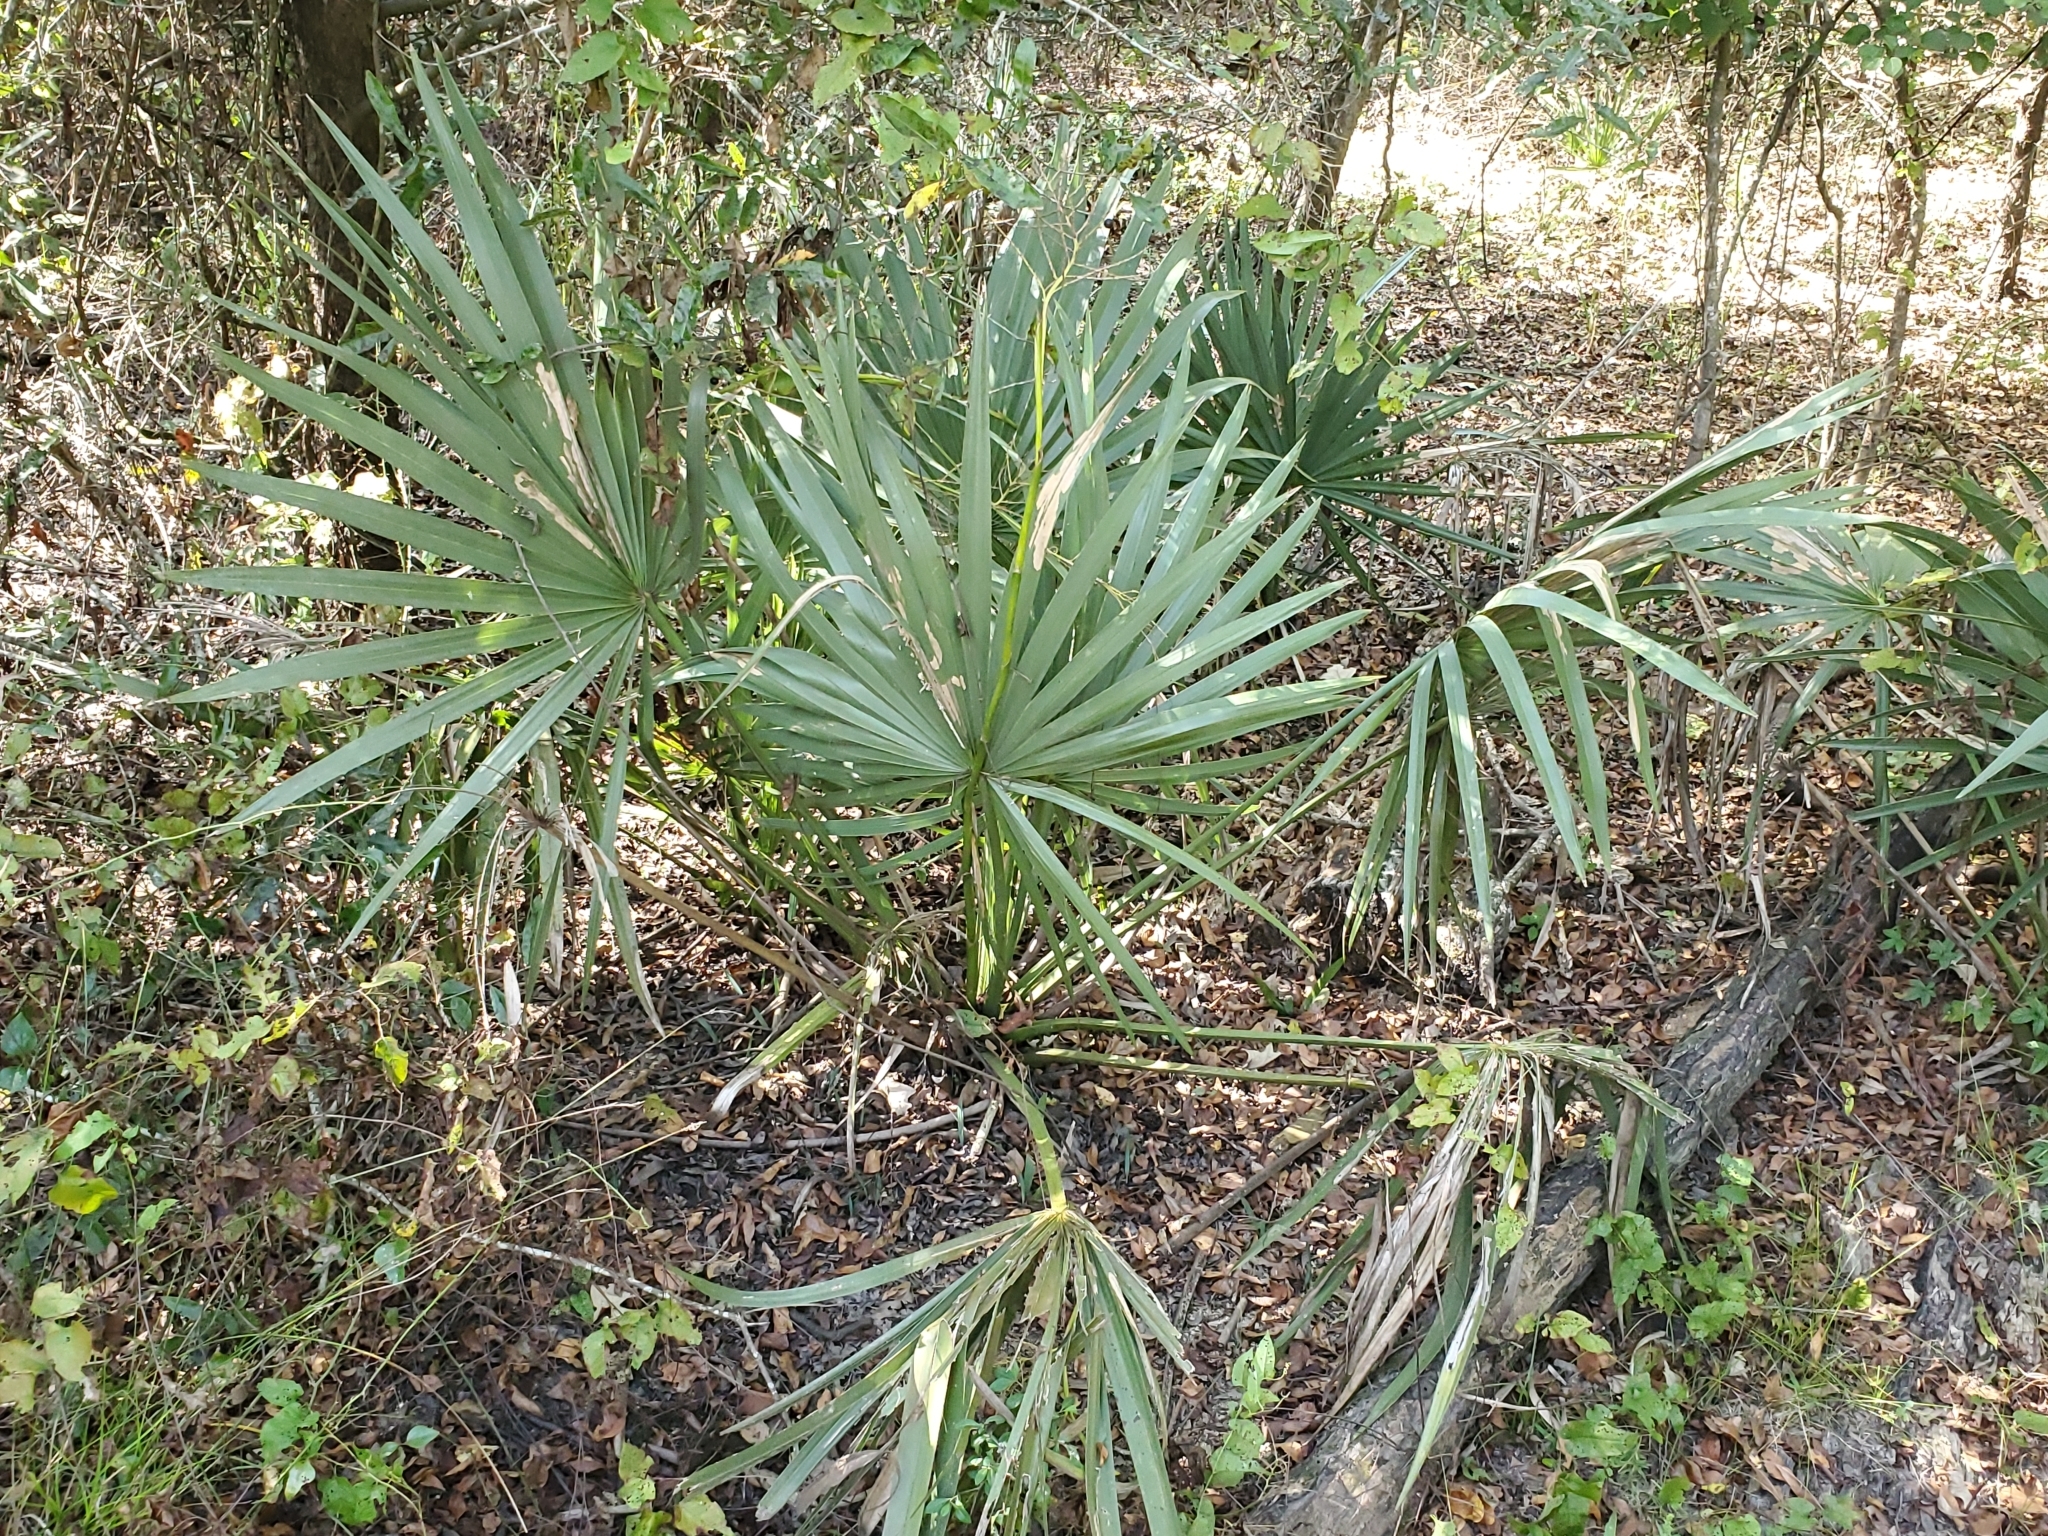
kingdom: Plantae
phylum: Tracheophyta
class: Liliopsida
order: Arecales
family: Arecaceae
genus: Sabal
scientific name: Sabal minor
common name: Dwarf palmetto
